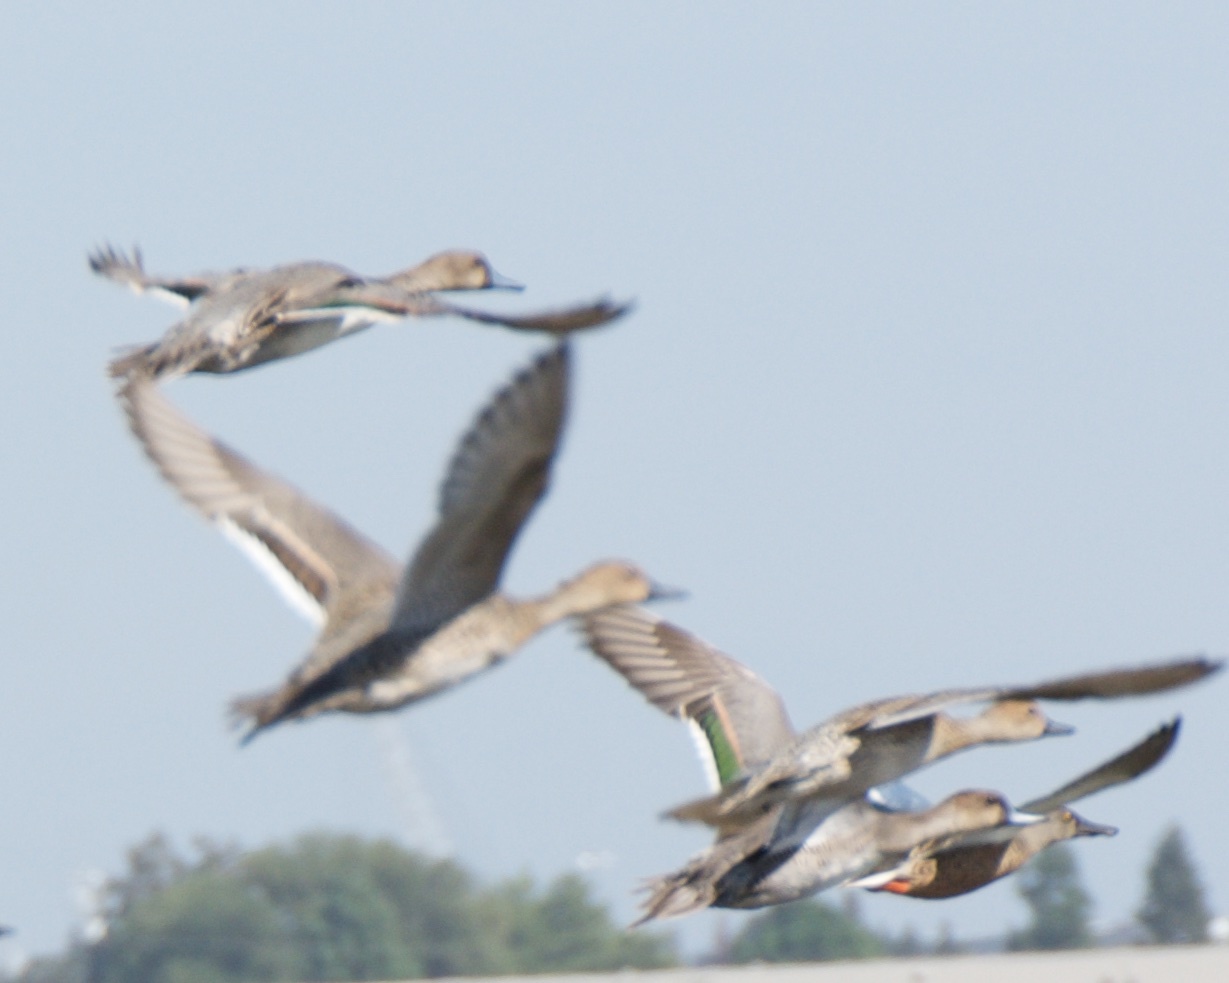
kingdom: Animalia
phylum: Chordata
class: Aves
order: Anseriformes
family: Anatidae
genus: Anas
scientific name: Anas acuta
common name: Northern pintail
